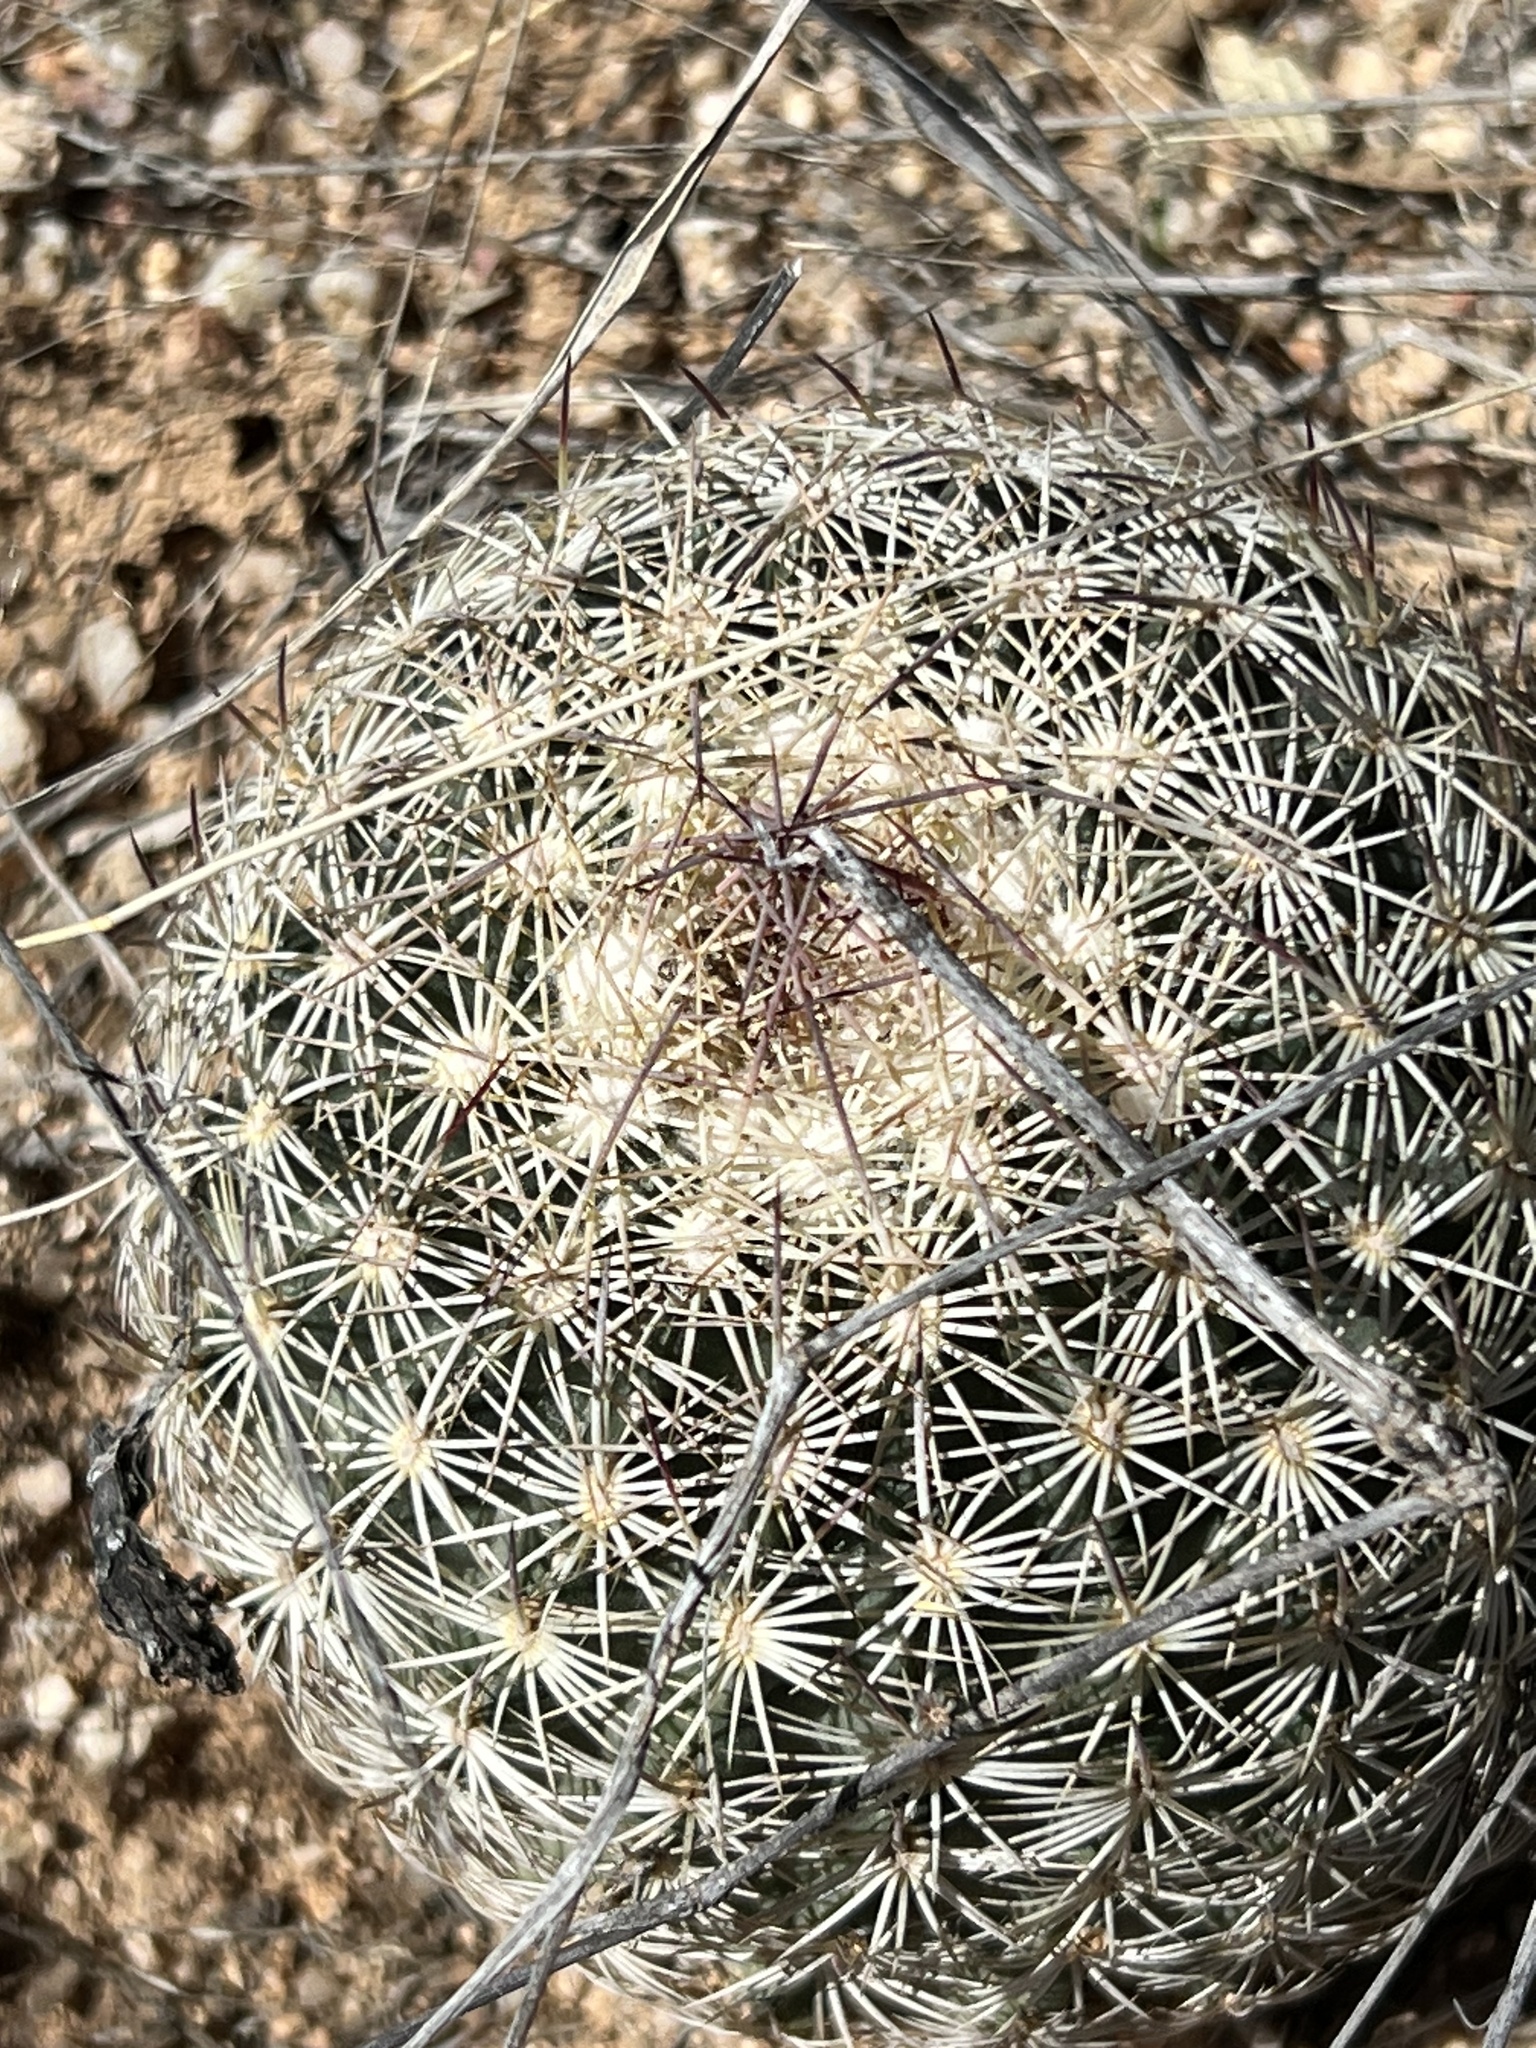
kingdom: Plantae
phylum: Tracheophyta
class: Magnoliopsida
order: Caryophyllales
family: Cactaceae
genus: Sclerocactus
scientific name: Sclerocactus johnsonii
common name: Eight-spine fishhook cactus
